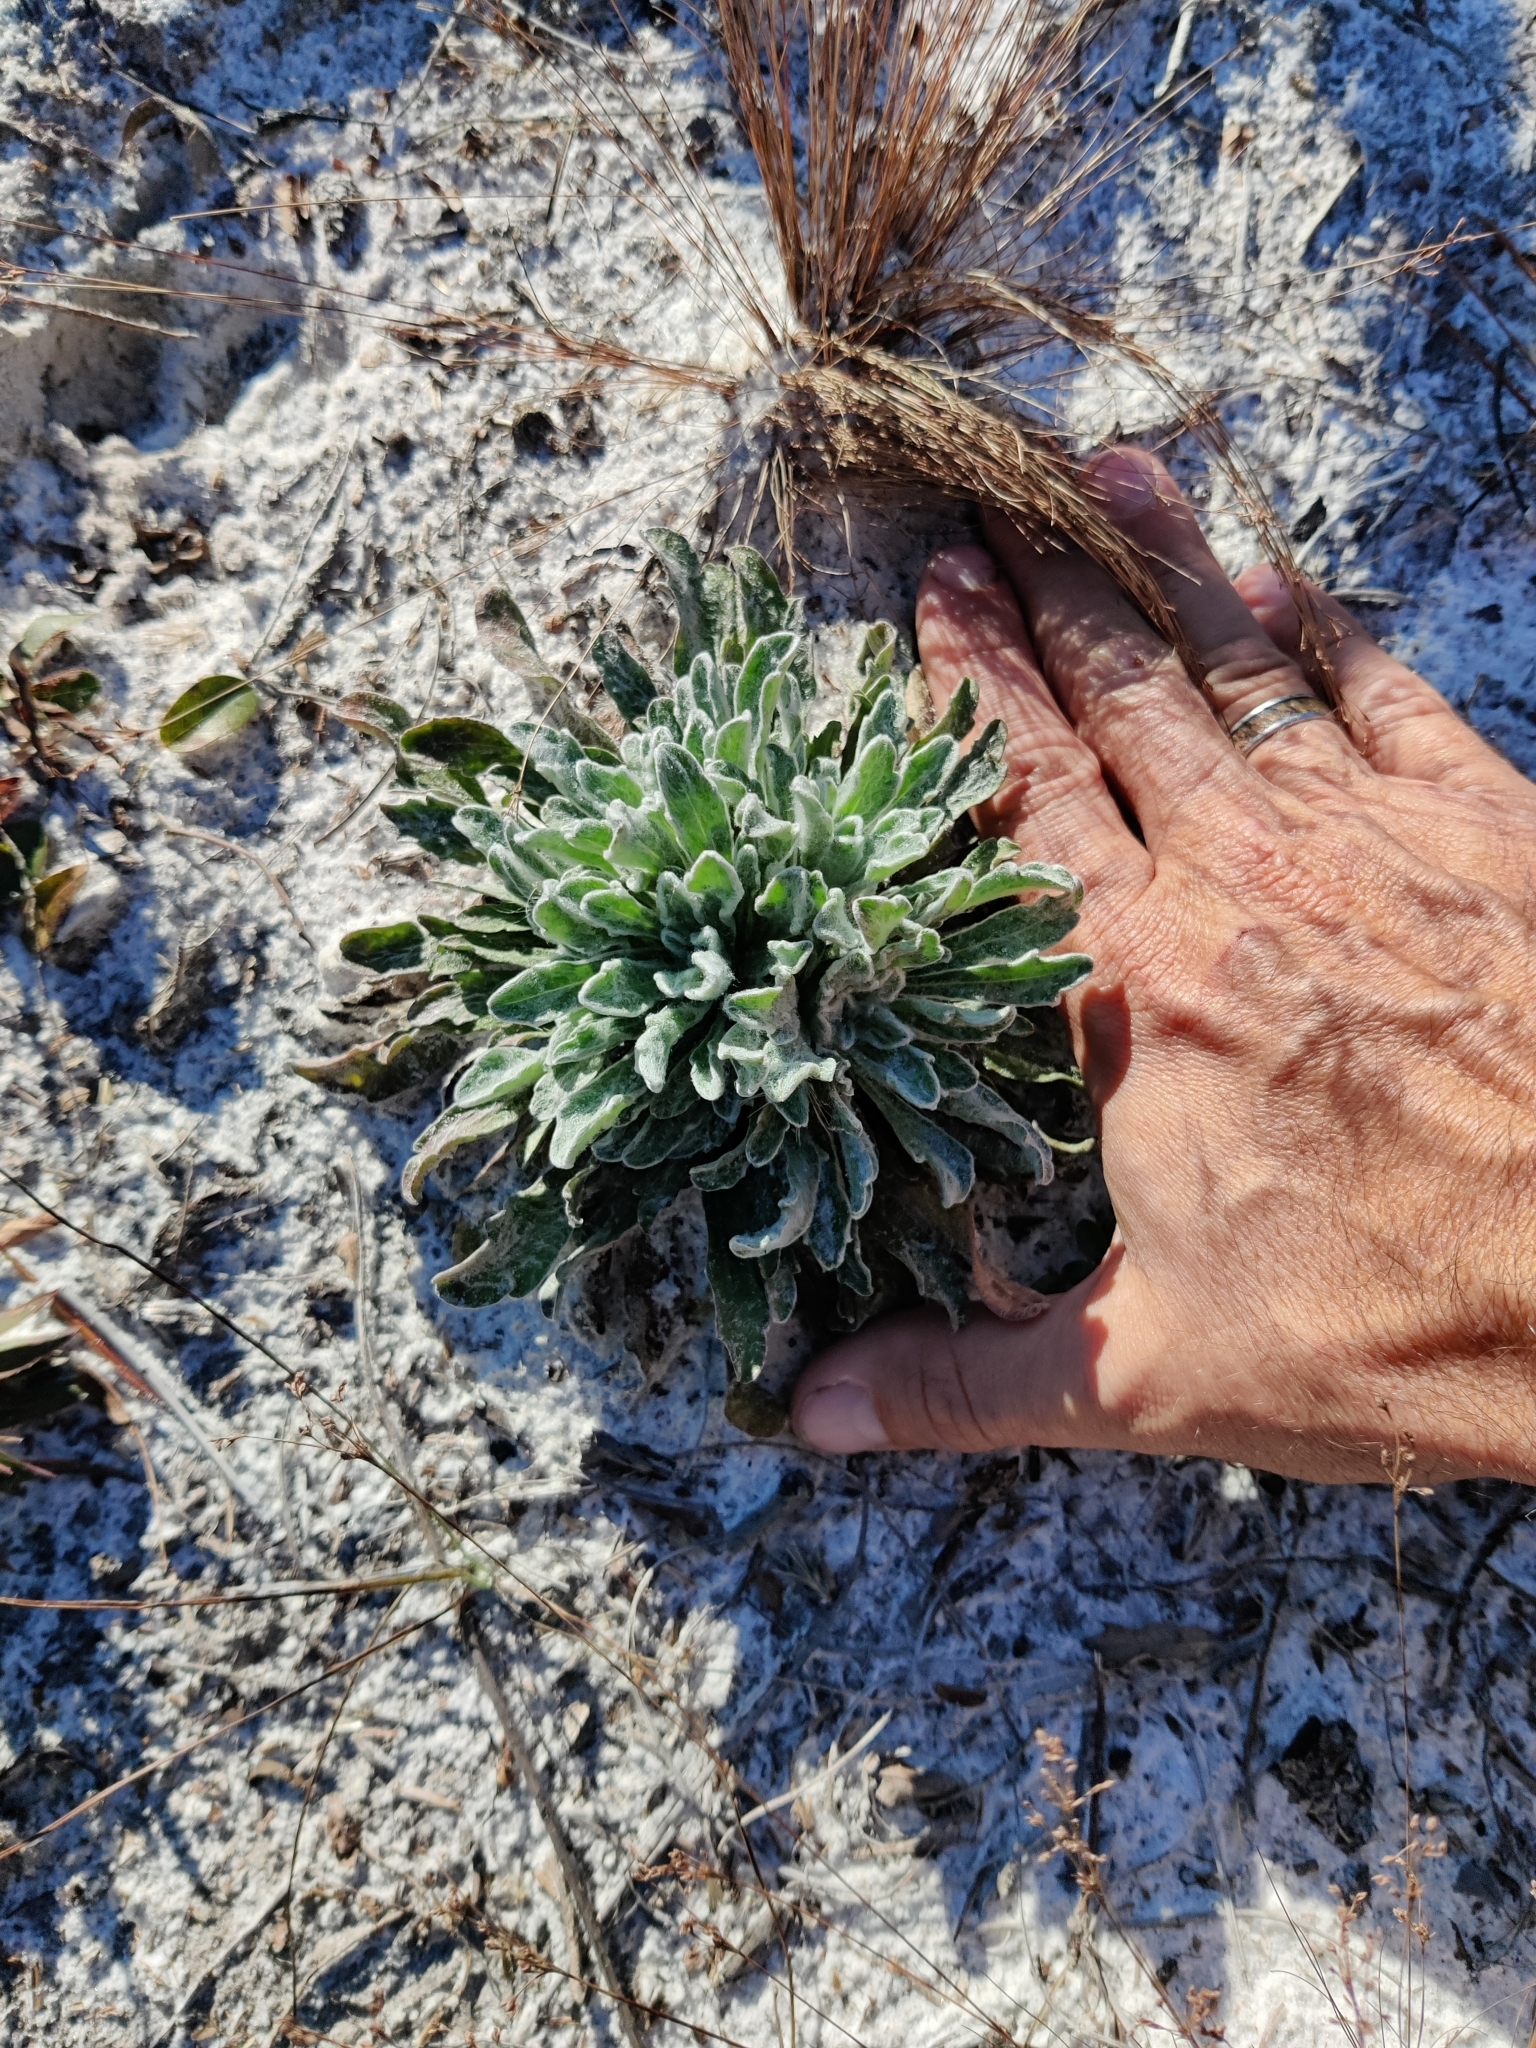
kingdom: Plantae
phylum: Tracheophyta
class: Magnoliopsida
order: Asterales
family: Asteraceae
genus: Chrysopsis
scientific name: Chrysopsis godfreyi
